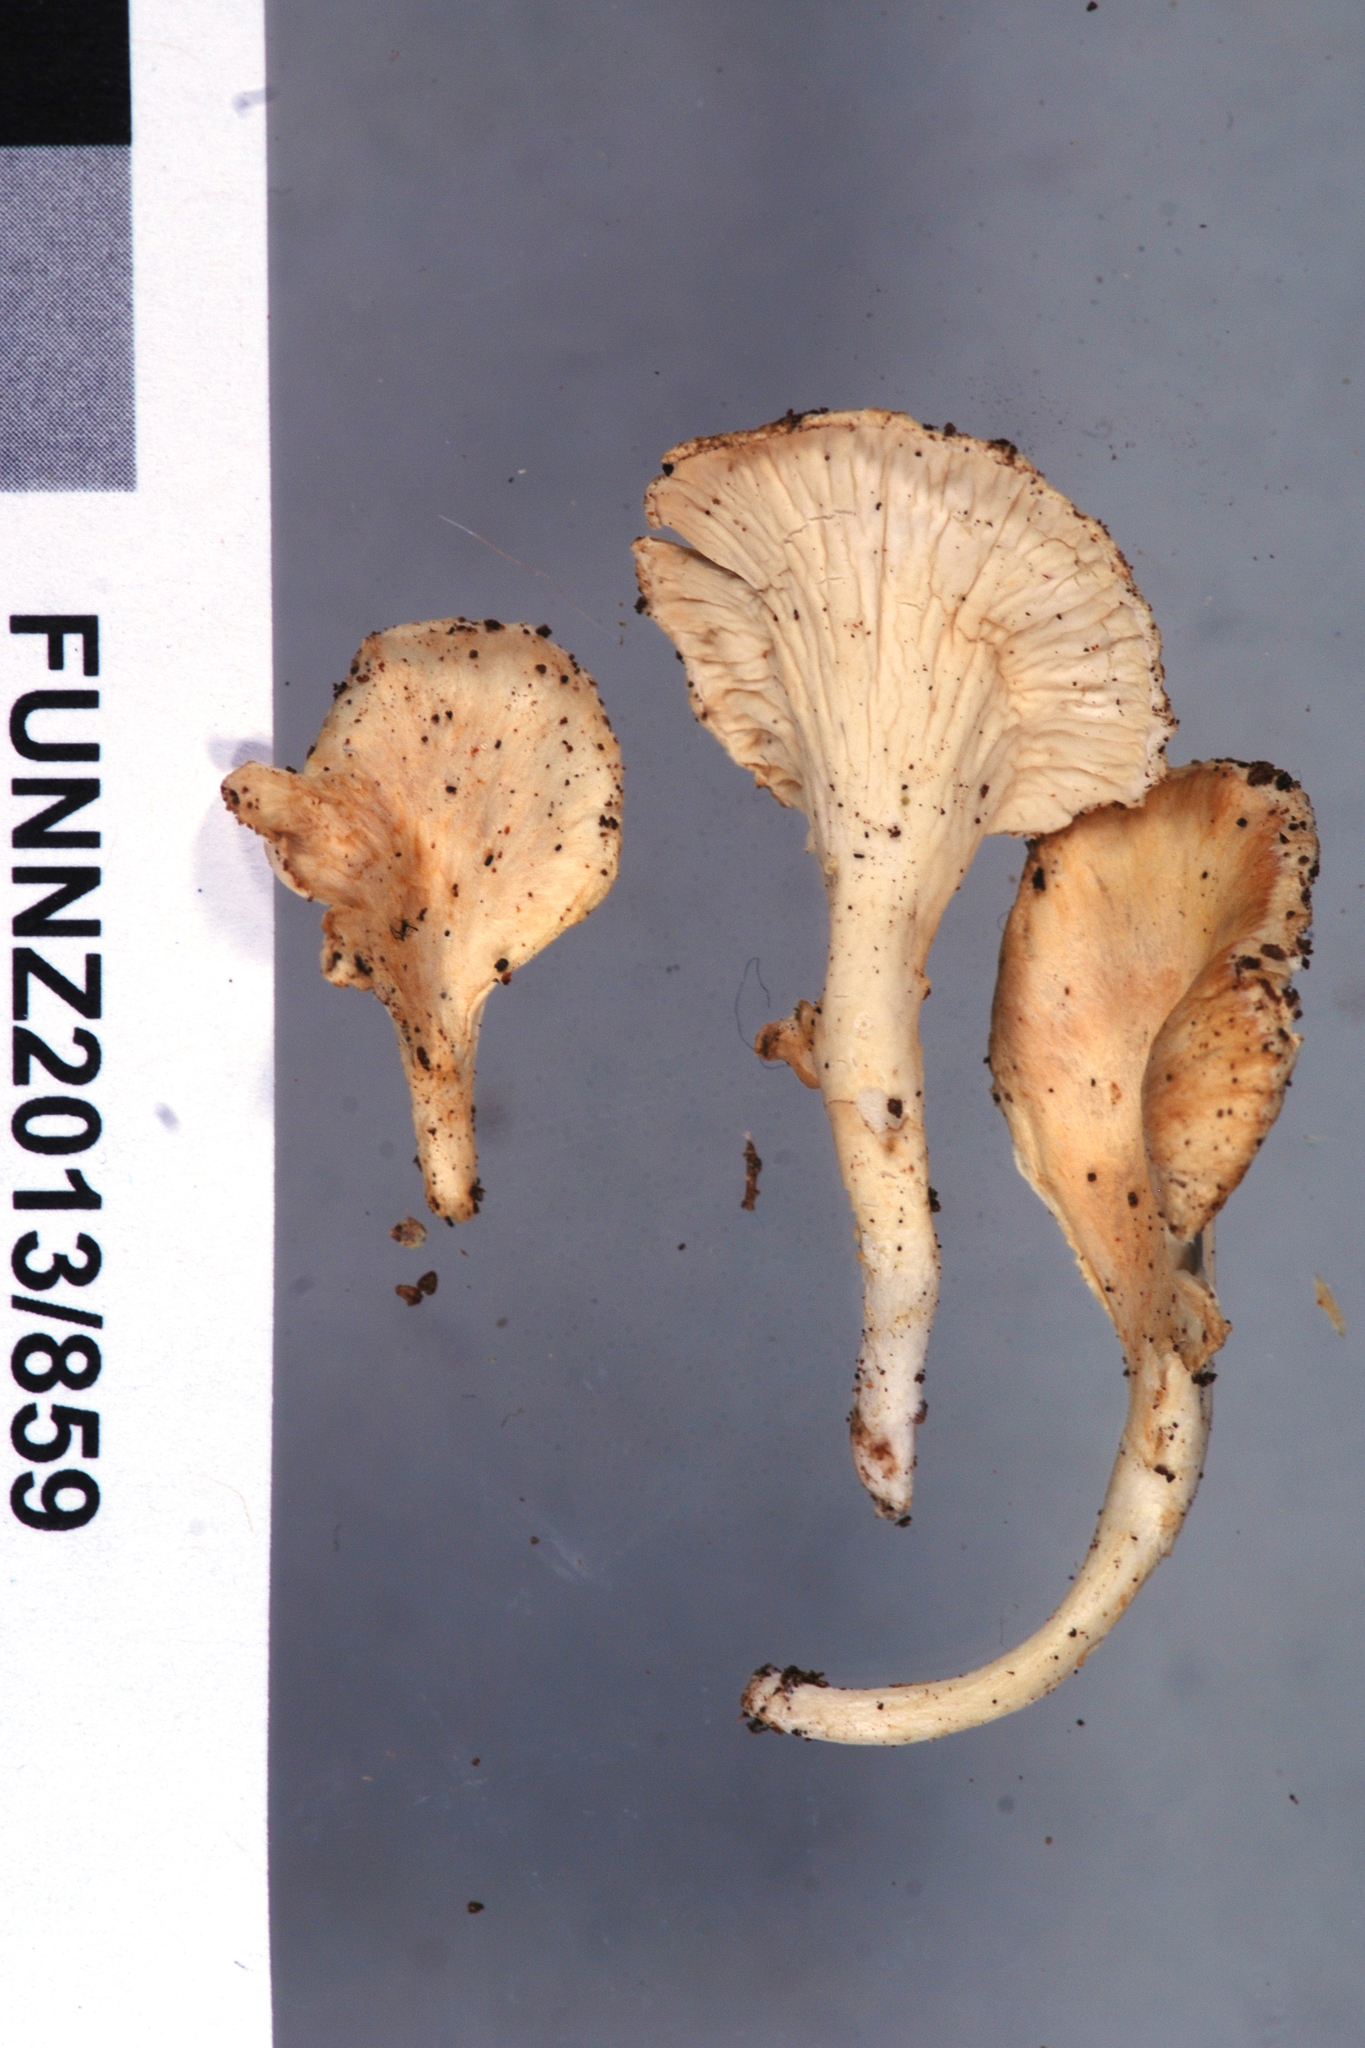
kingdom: Fungi
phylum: Basidiomycota
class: Agaricomycetes
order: Amylocorticiales
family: Amylocorticiaceae
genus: Podoserpula
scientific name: Podoserpula
